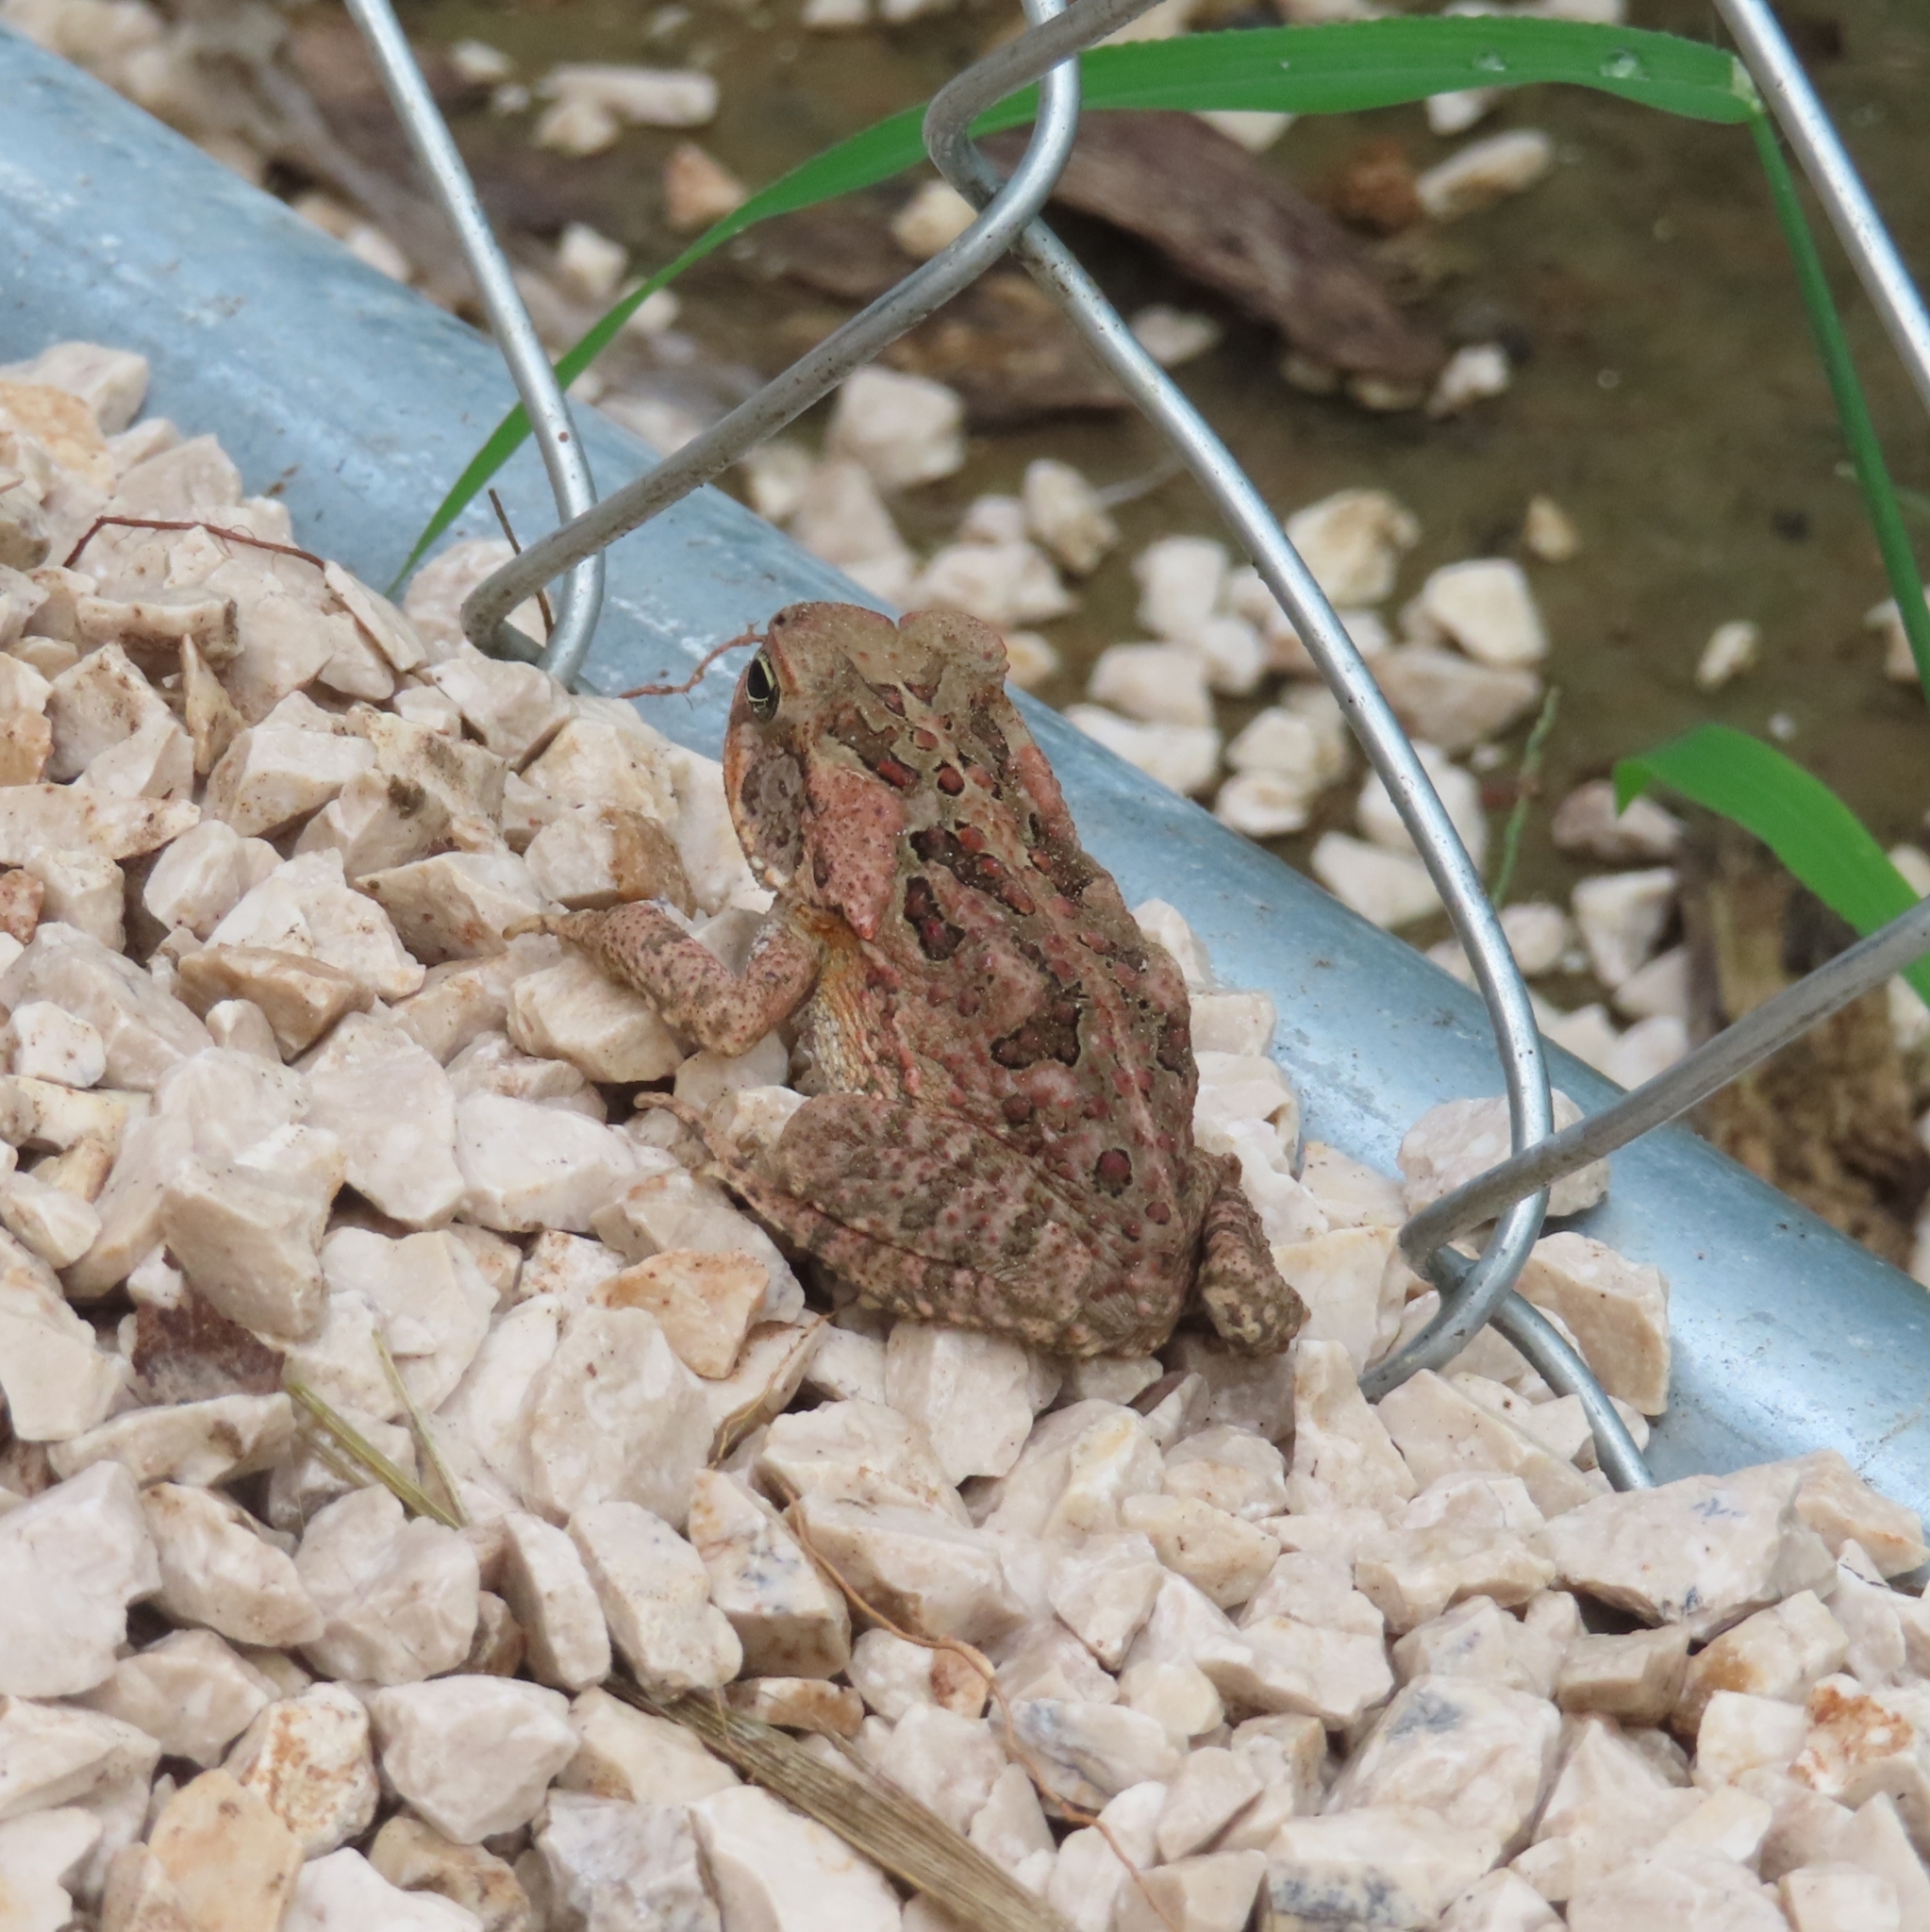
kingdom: Animalia
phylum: Chordata
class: Amphibia
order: Anura
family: Bufonidae
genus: Rhinella
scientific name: Rhinella marina
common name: Cane toad
